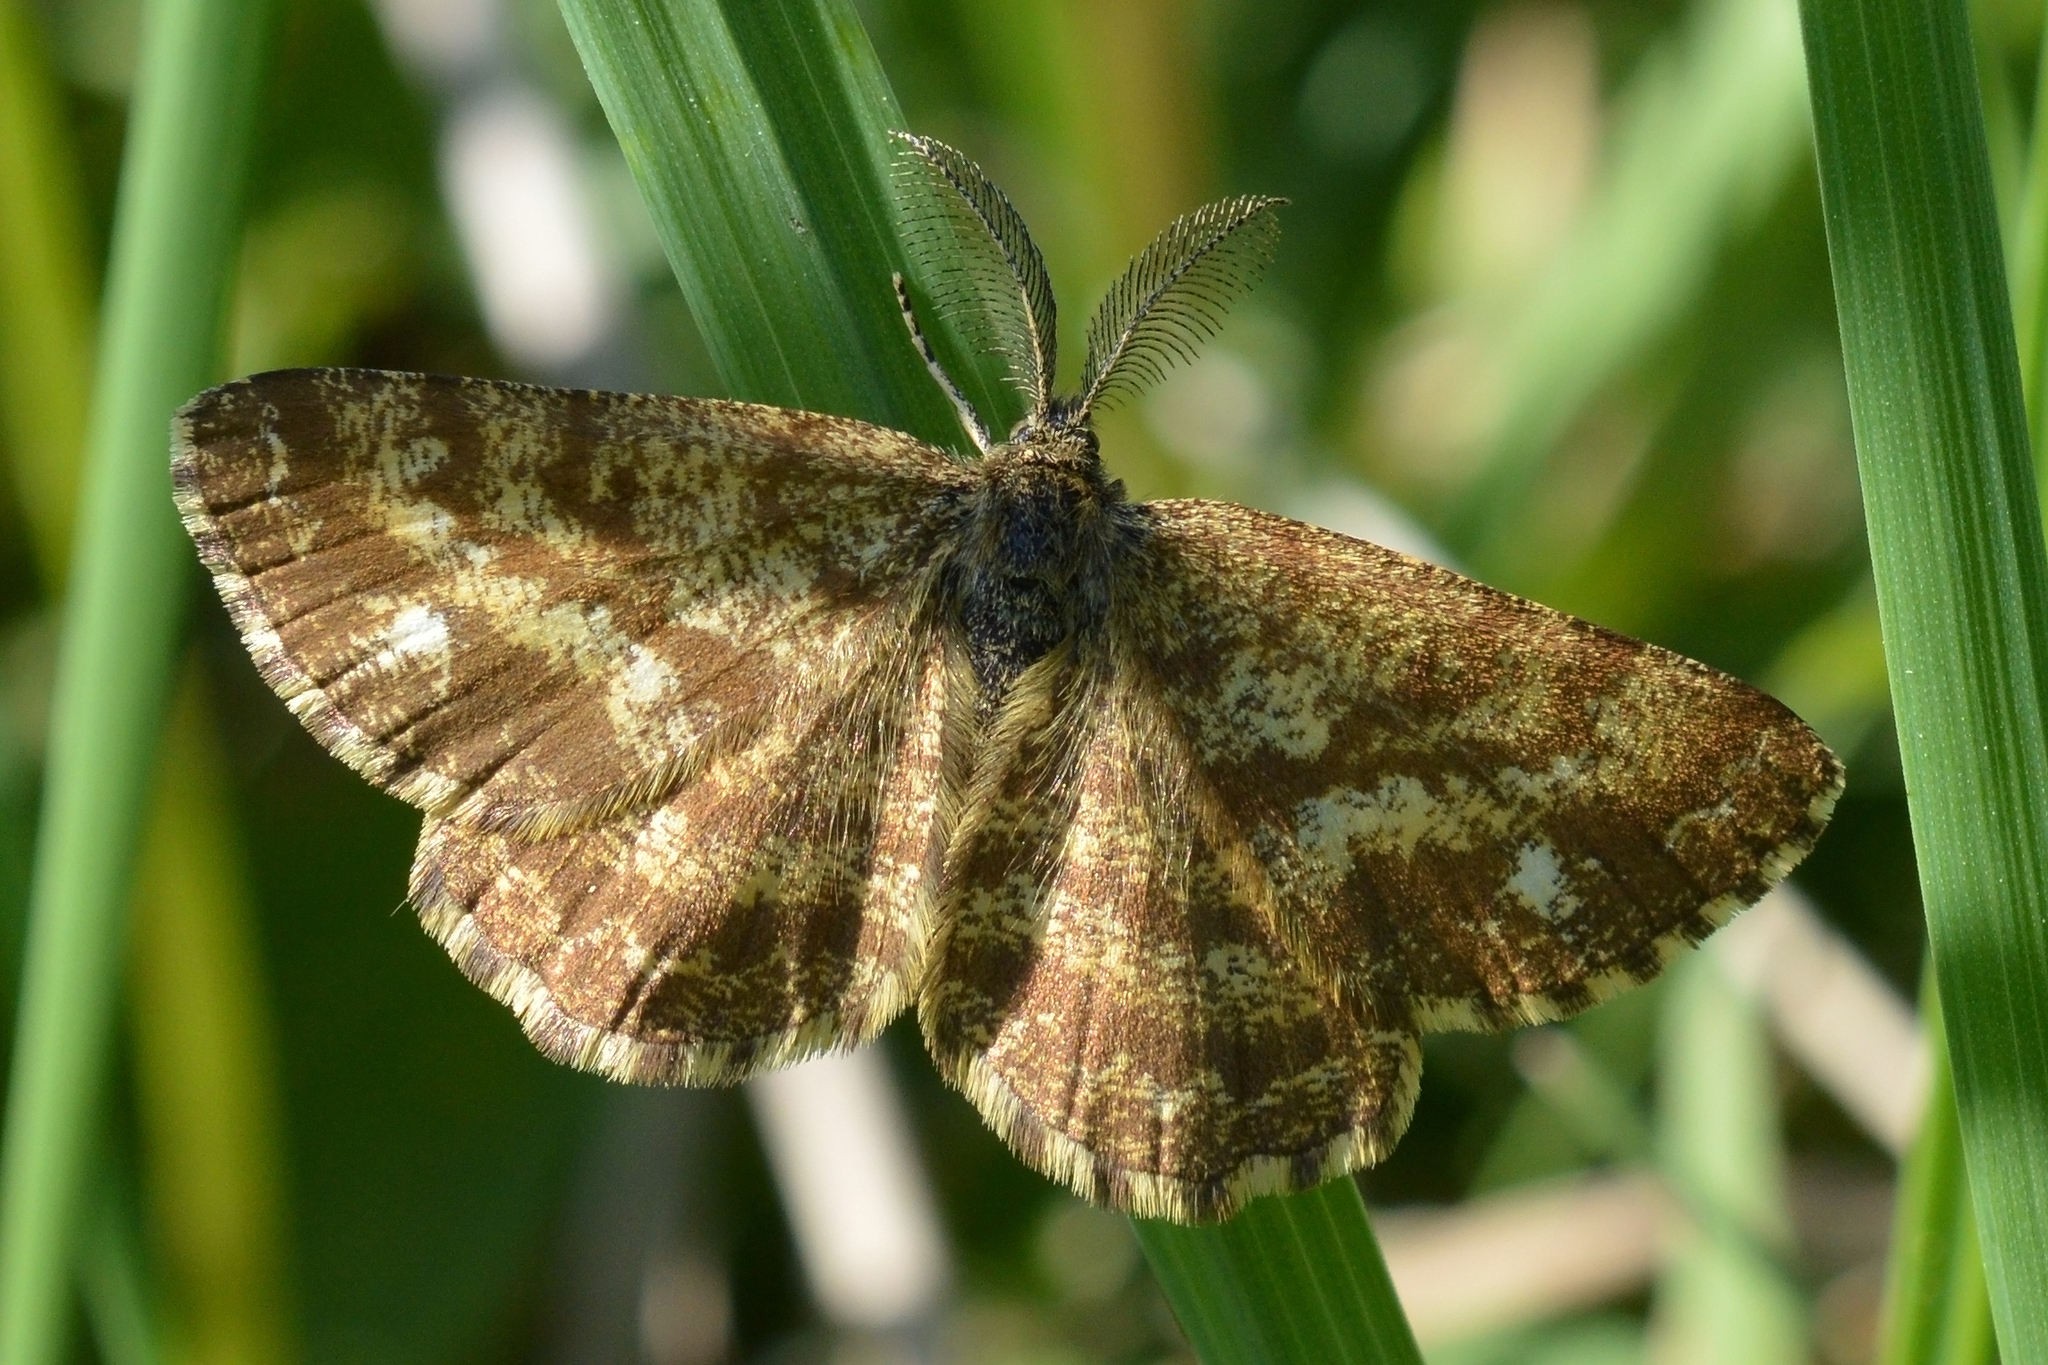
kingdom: Animalia
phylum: Arthropoda
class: Insecta
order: Lepidoptera
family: Geometridae
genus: Ematurga
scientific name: Ematurga atomaria
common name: Common heath
